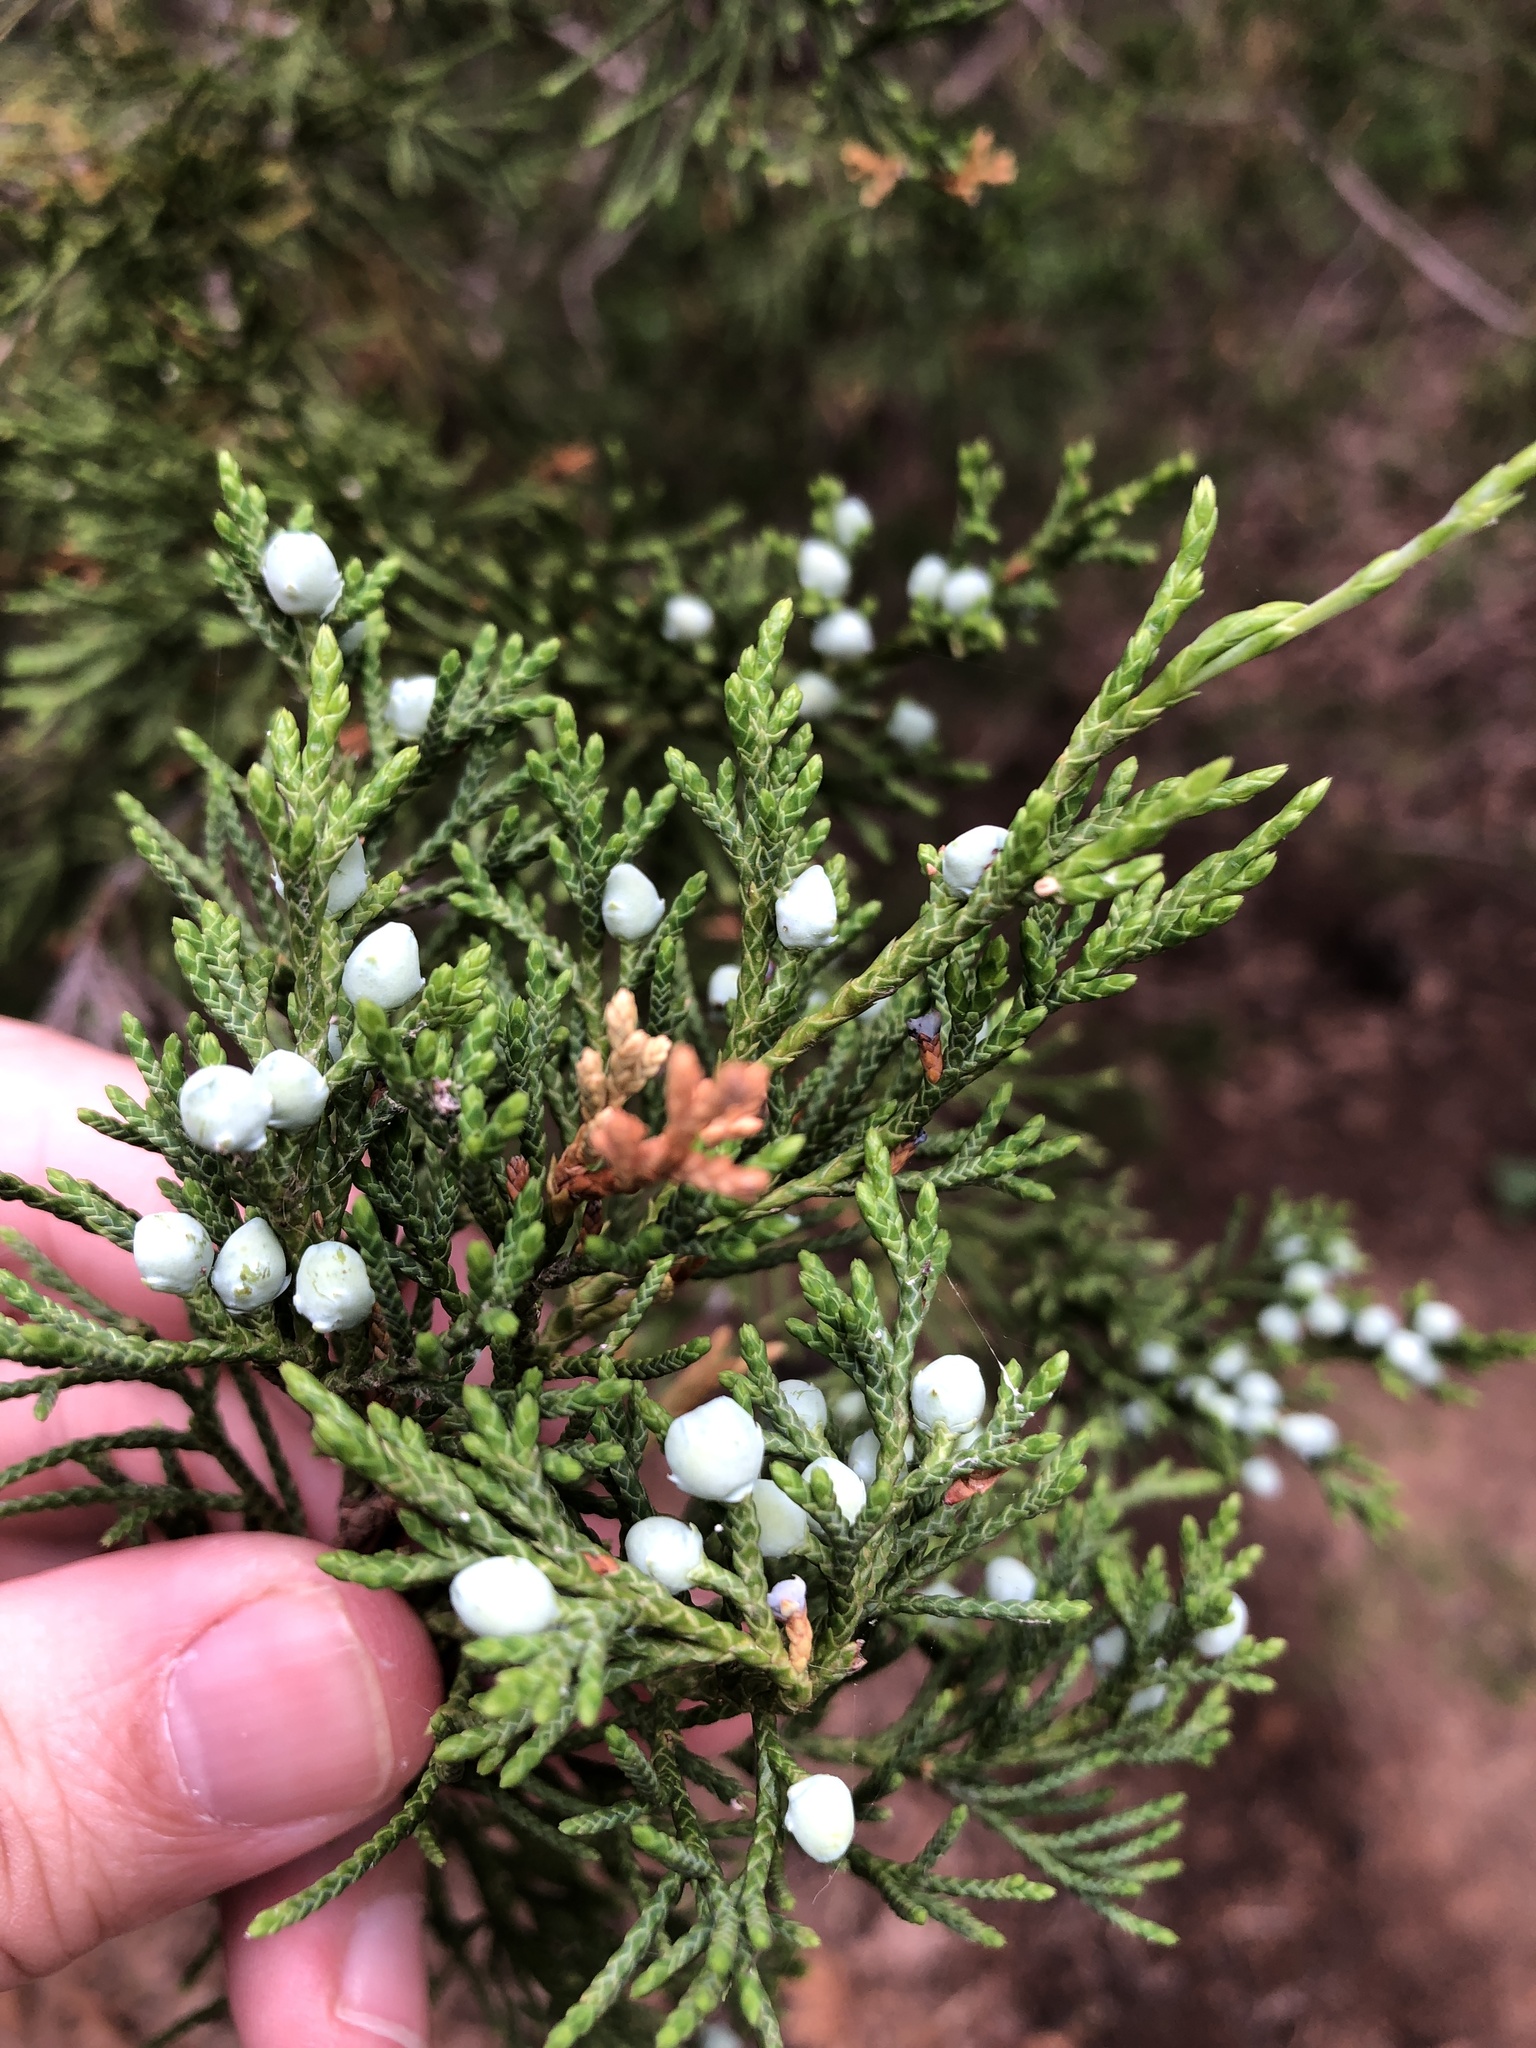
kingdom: Plantae
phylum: Tracheophyta
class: Pinopsida
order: Pinales
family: Cupressaceae
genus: Juniperus
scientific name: Juniperus virginiana
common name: Red juniper
